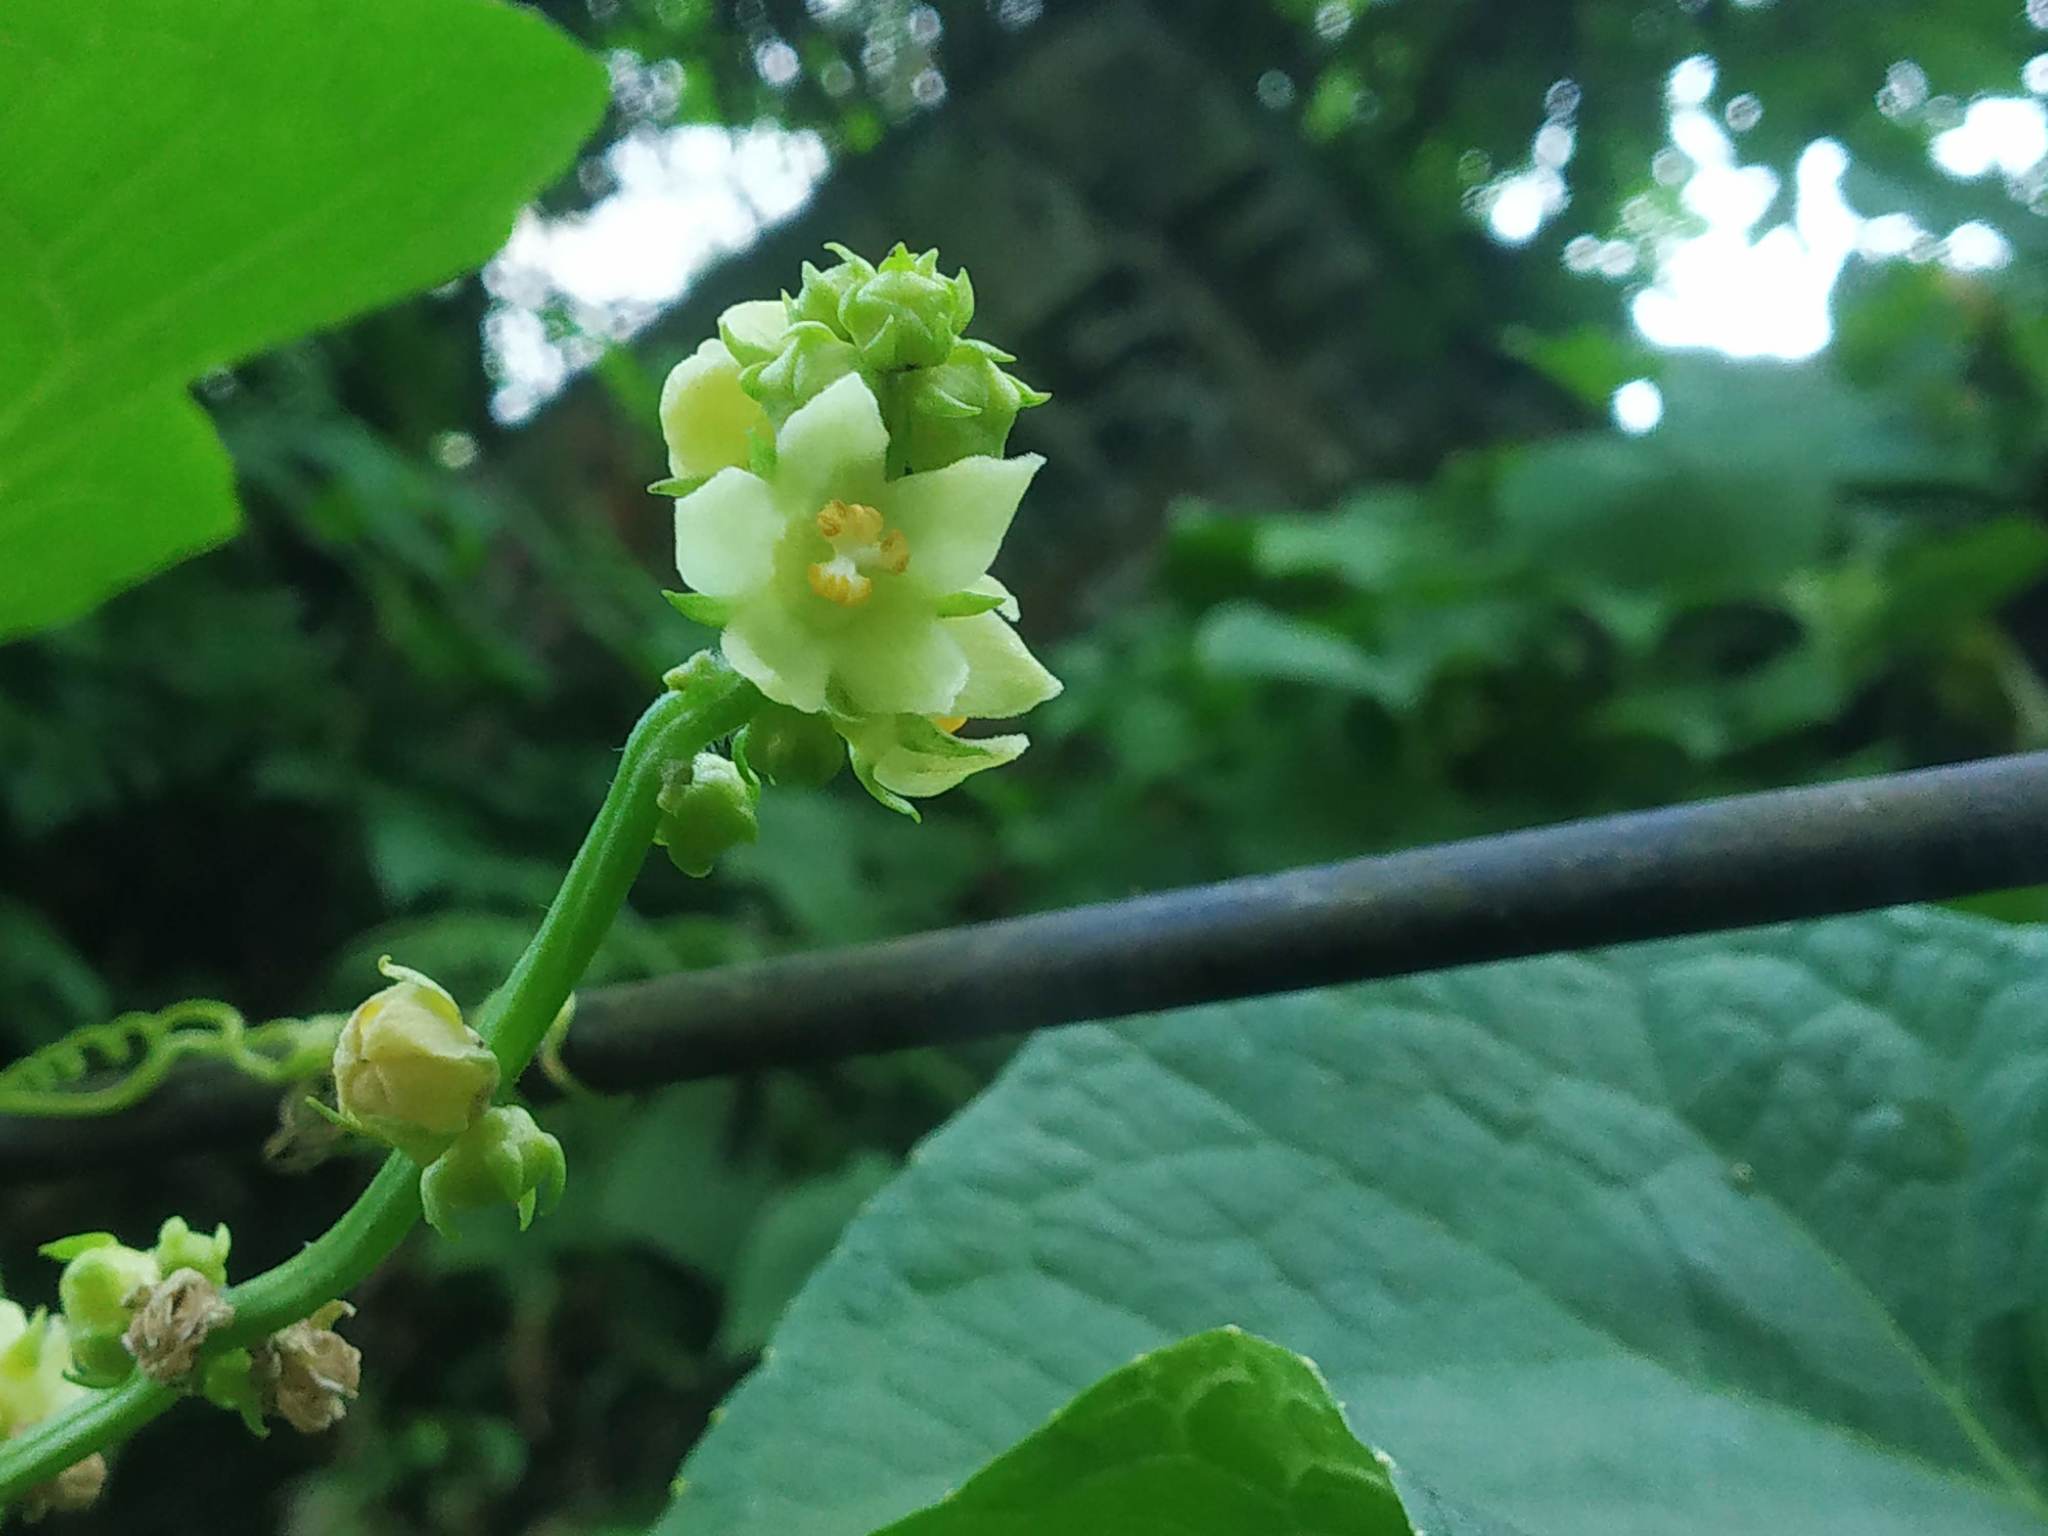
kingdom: Plantae
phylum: Tracheophyta
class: Magnoliopsida
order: Cucurbitales
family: Cucurbitaceae
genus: Sechium
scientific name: Sechium edule
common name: Chayote
